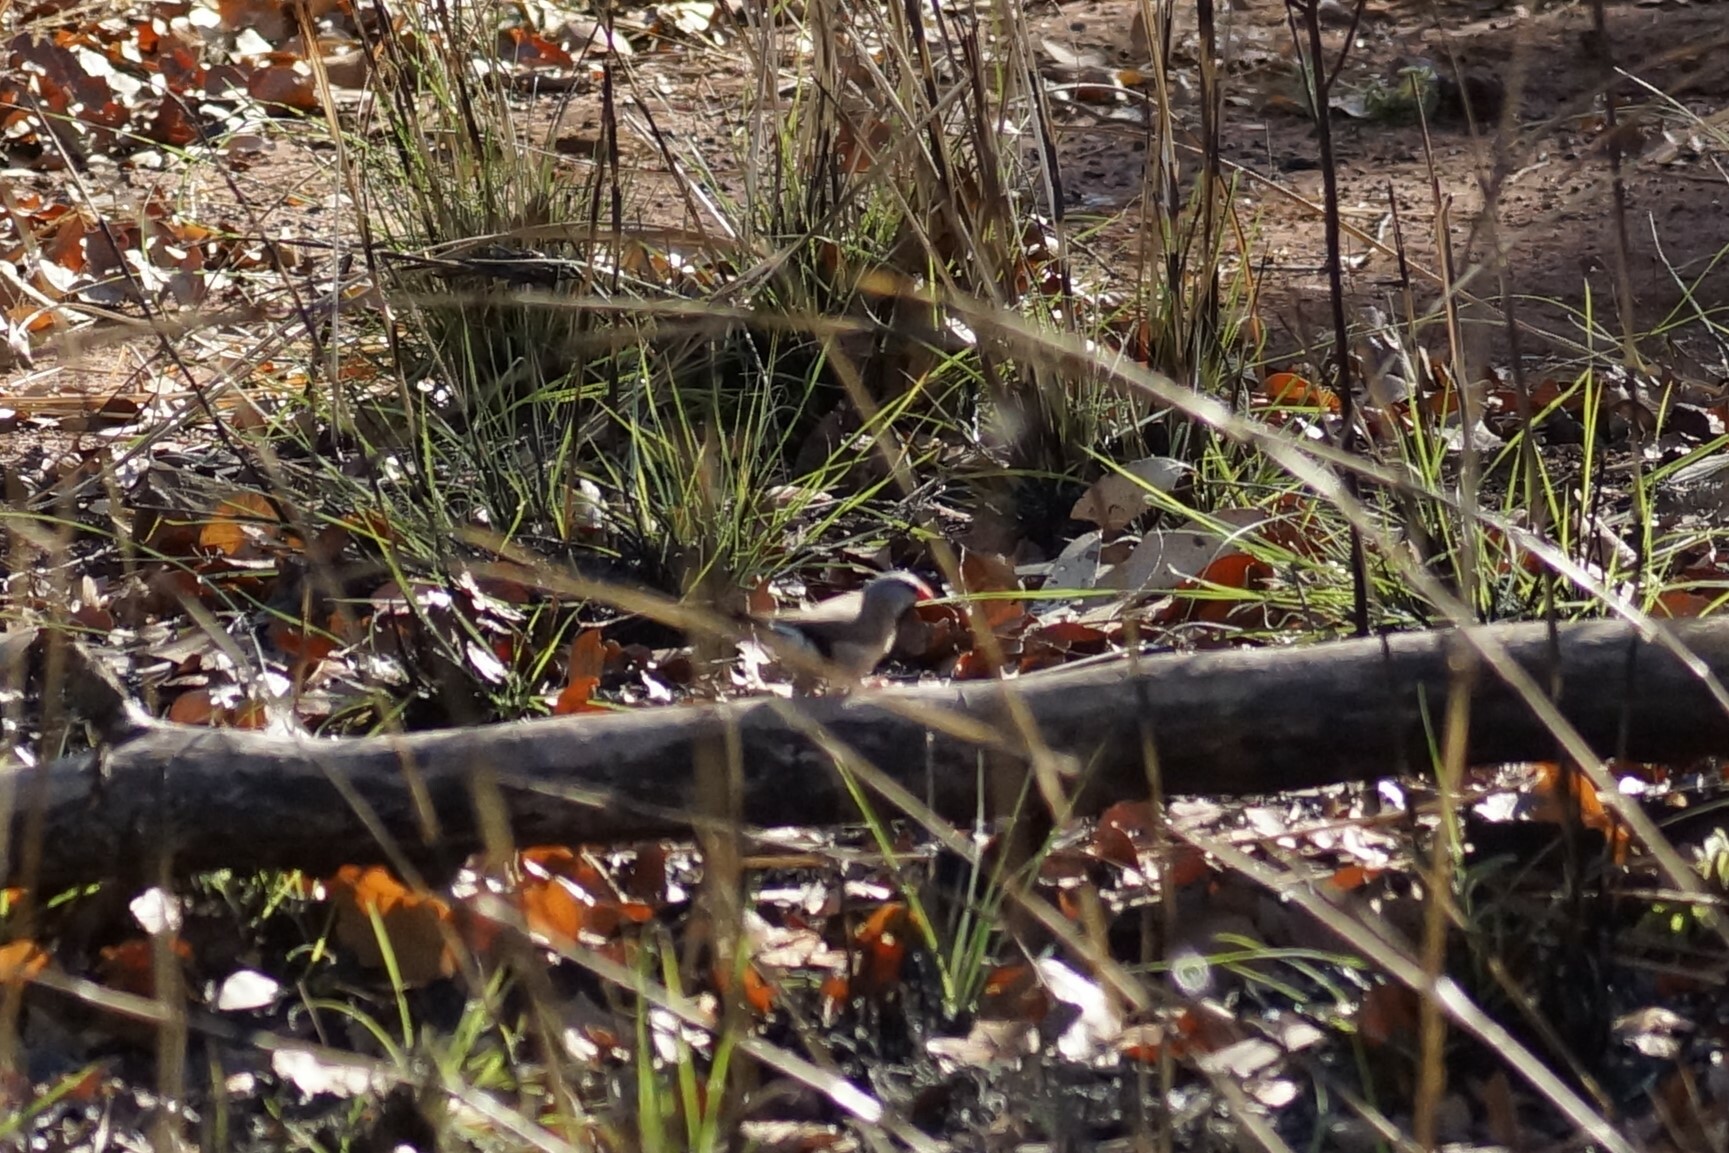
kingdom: Animalia
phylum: Chordata
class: Aves
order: Passeriformes
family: Estrildidae
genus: Poephila
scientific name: Poephila acuticauda
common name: Long-tailed finch
